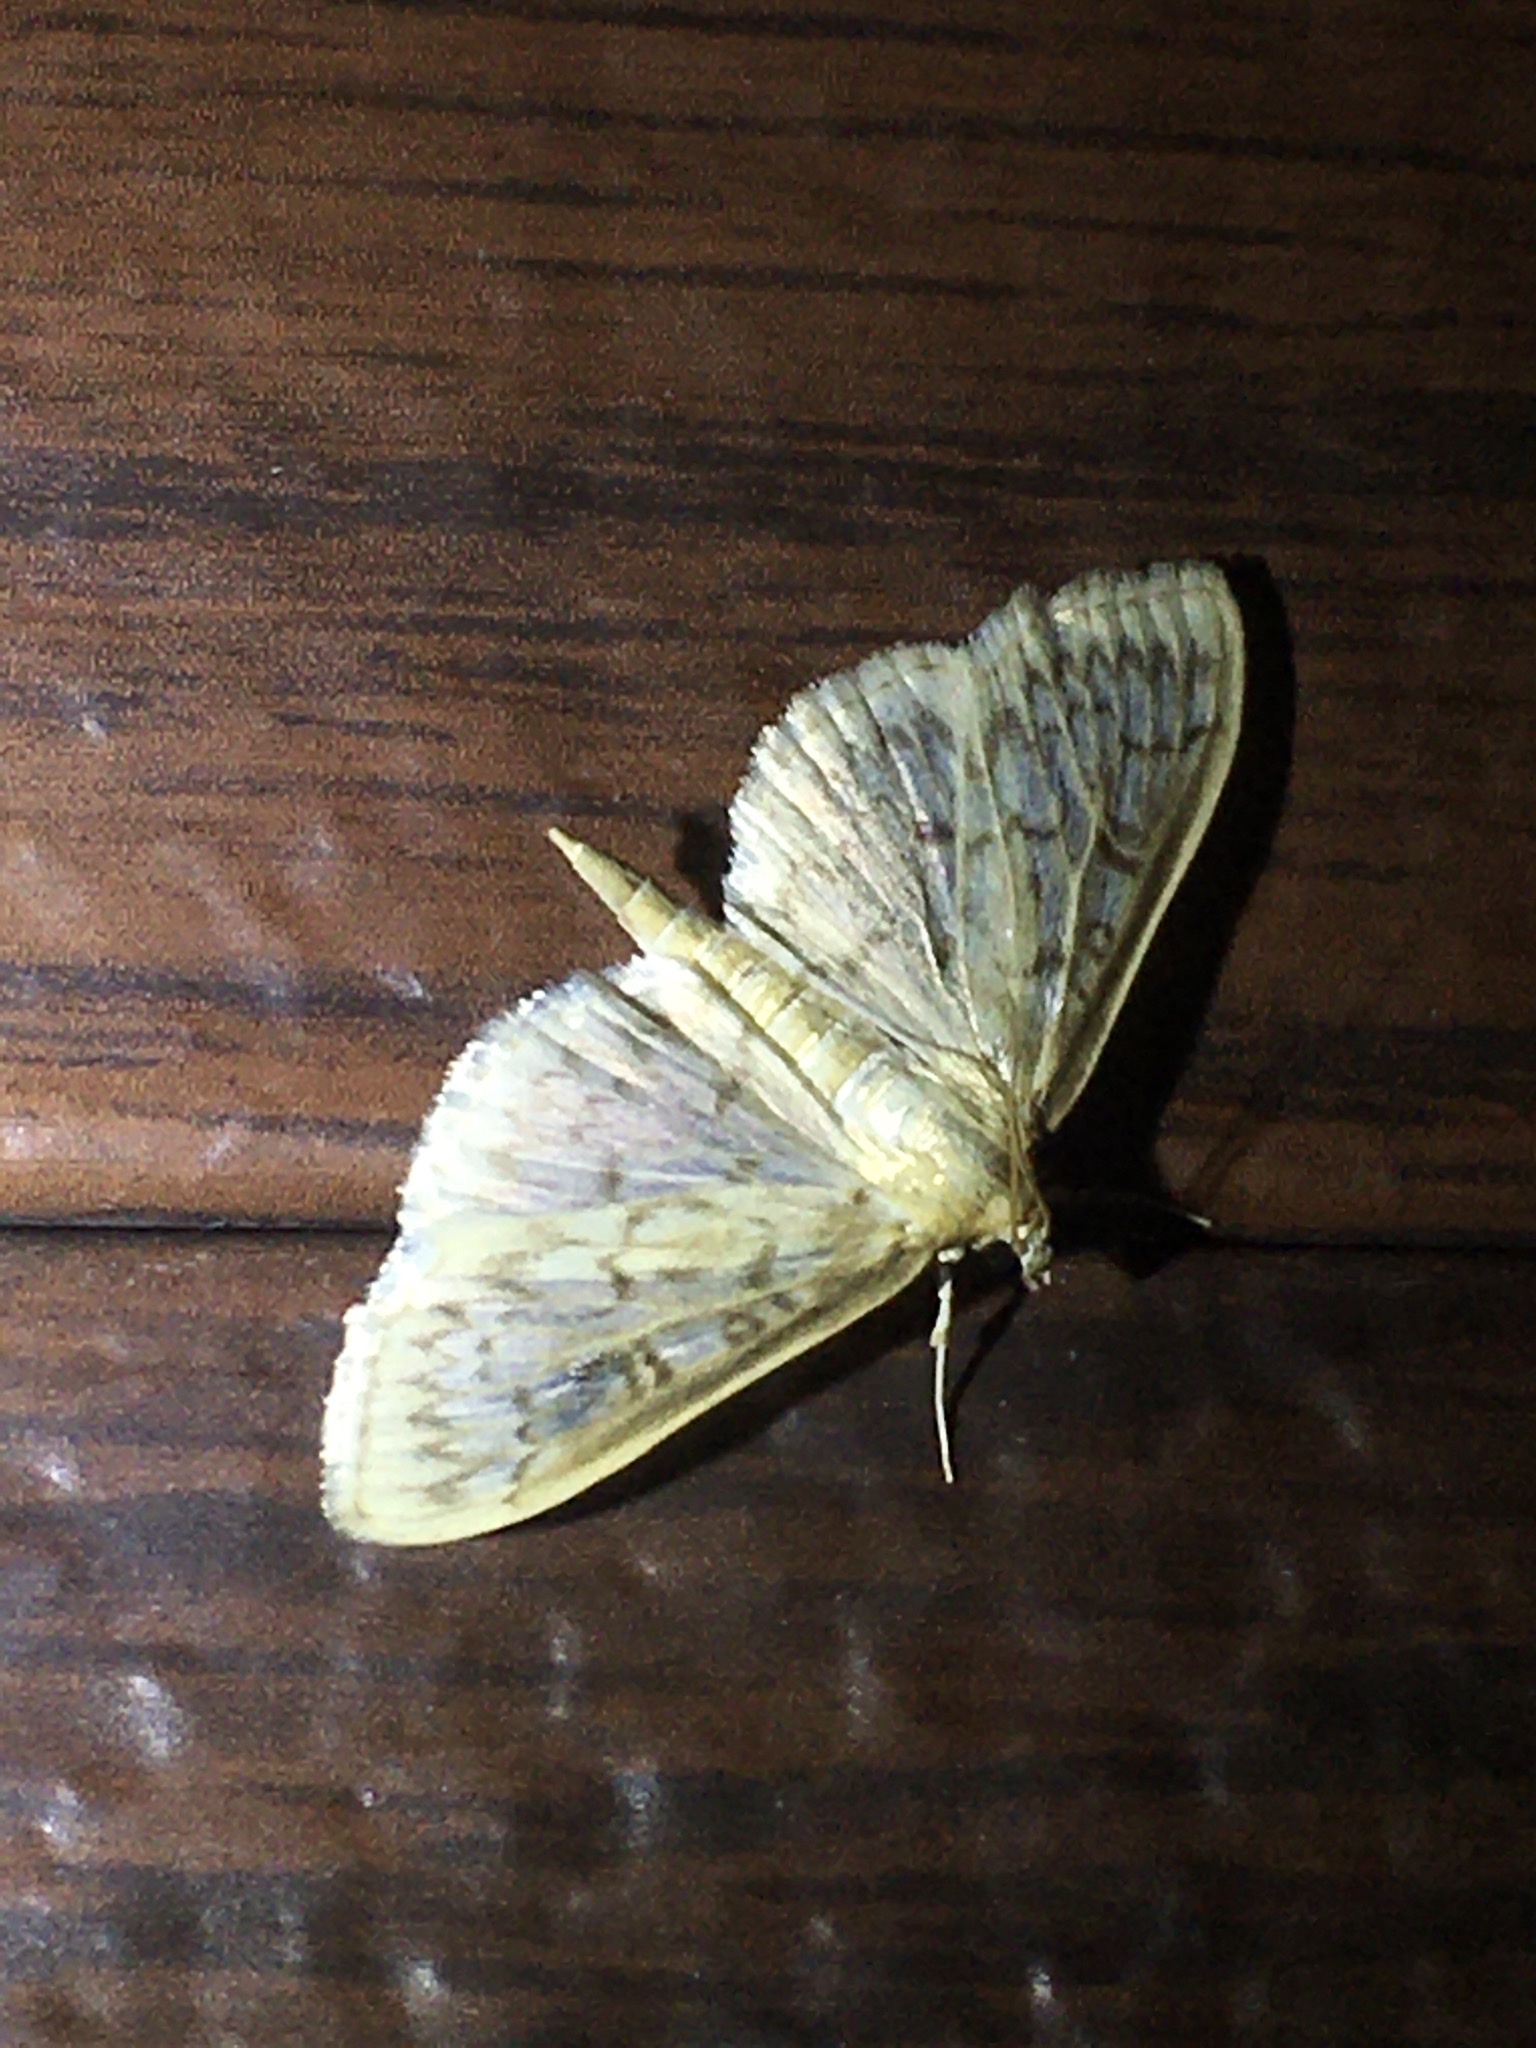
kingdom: Animalia
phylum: Arthropoda
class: Insecta
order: Lepidoptera
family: Crambidae
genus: Herpetogramma
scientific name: Herpetogramma thestealis
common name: Zigzag herpetogramma moth
